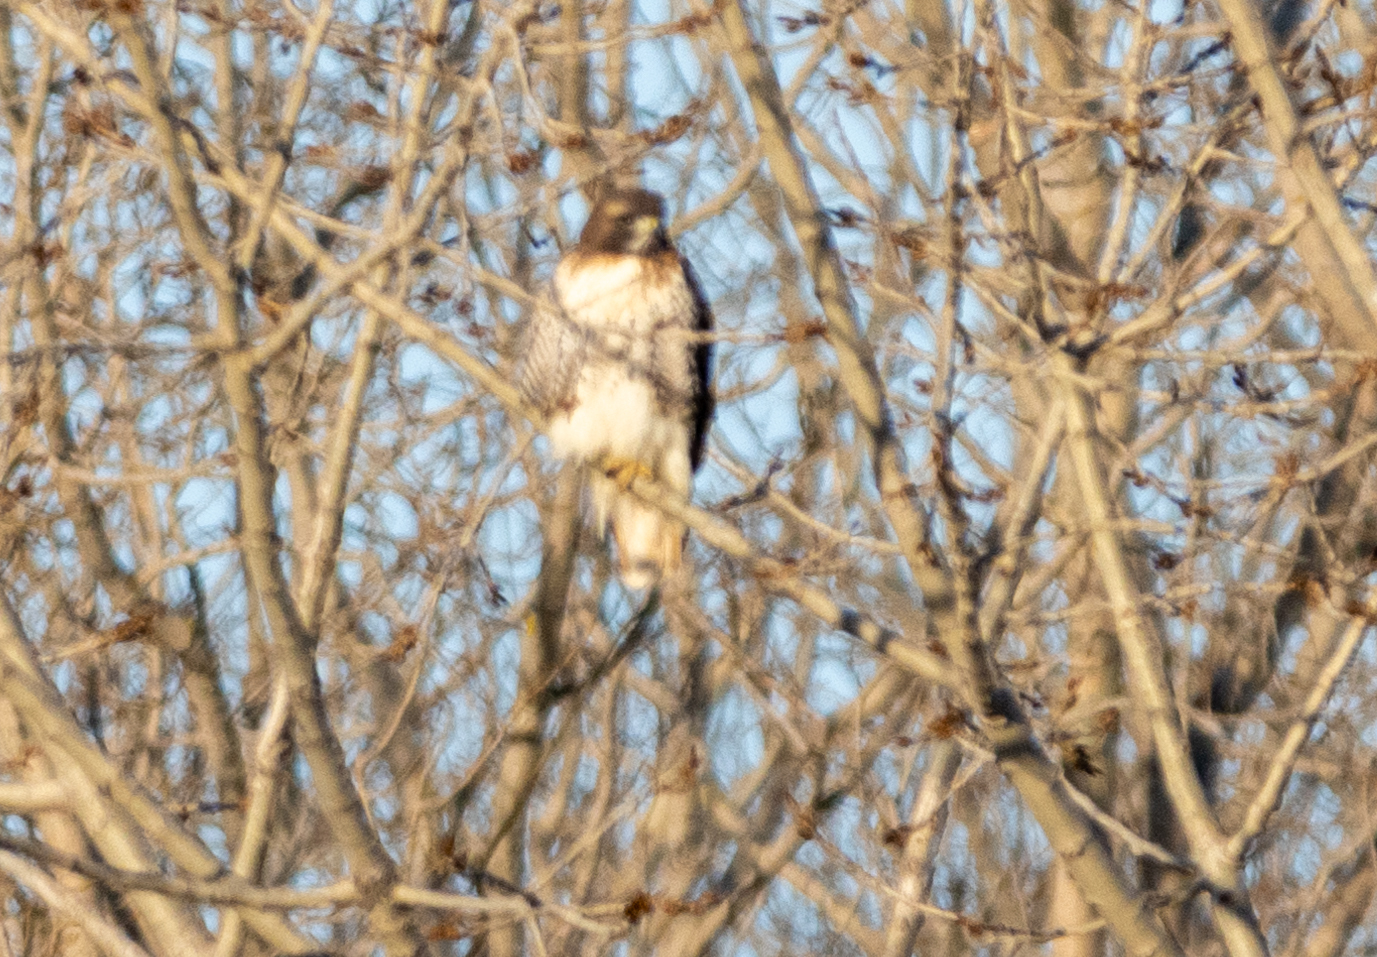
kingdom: Animalia
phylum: Chordata
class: Aves
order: Accipitriformes
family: Accipitridae
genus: Buteo
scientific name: Buteo jamaicensis
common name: Red-tailed hawk
